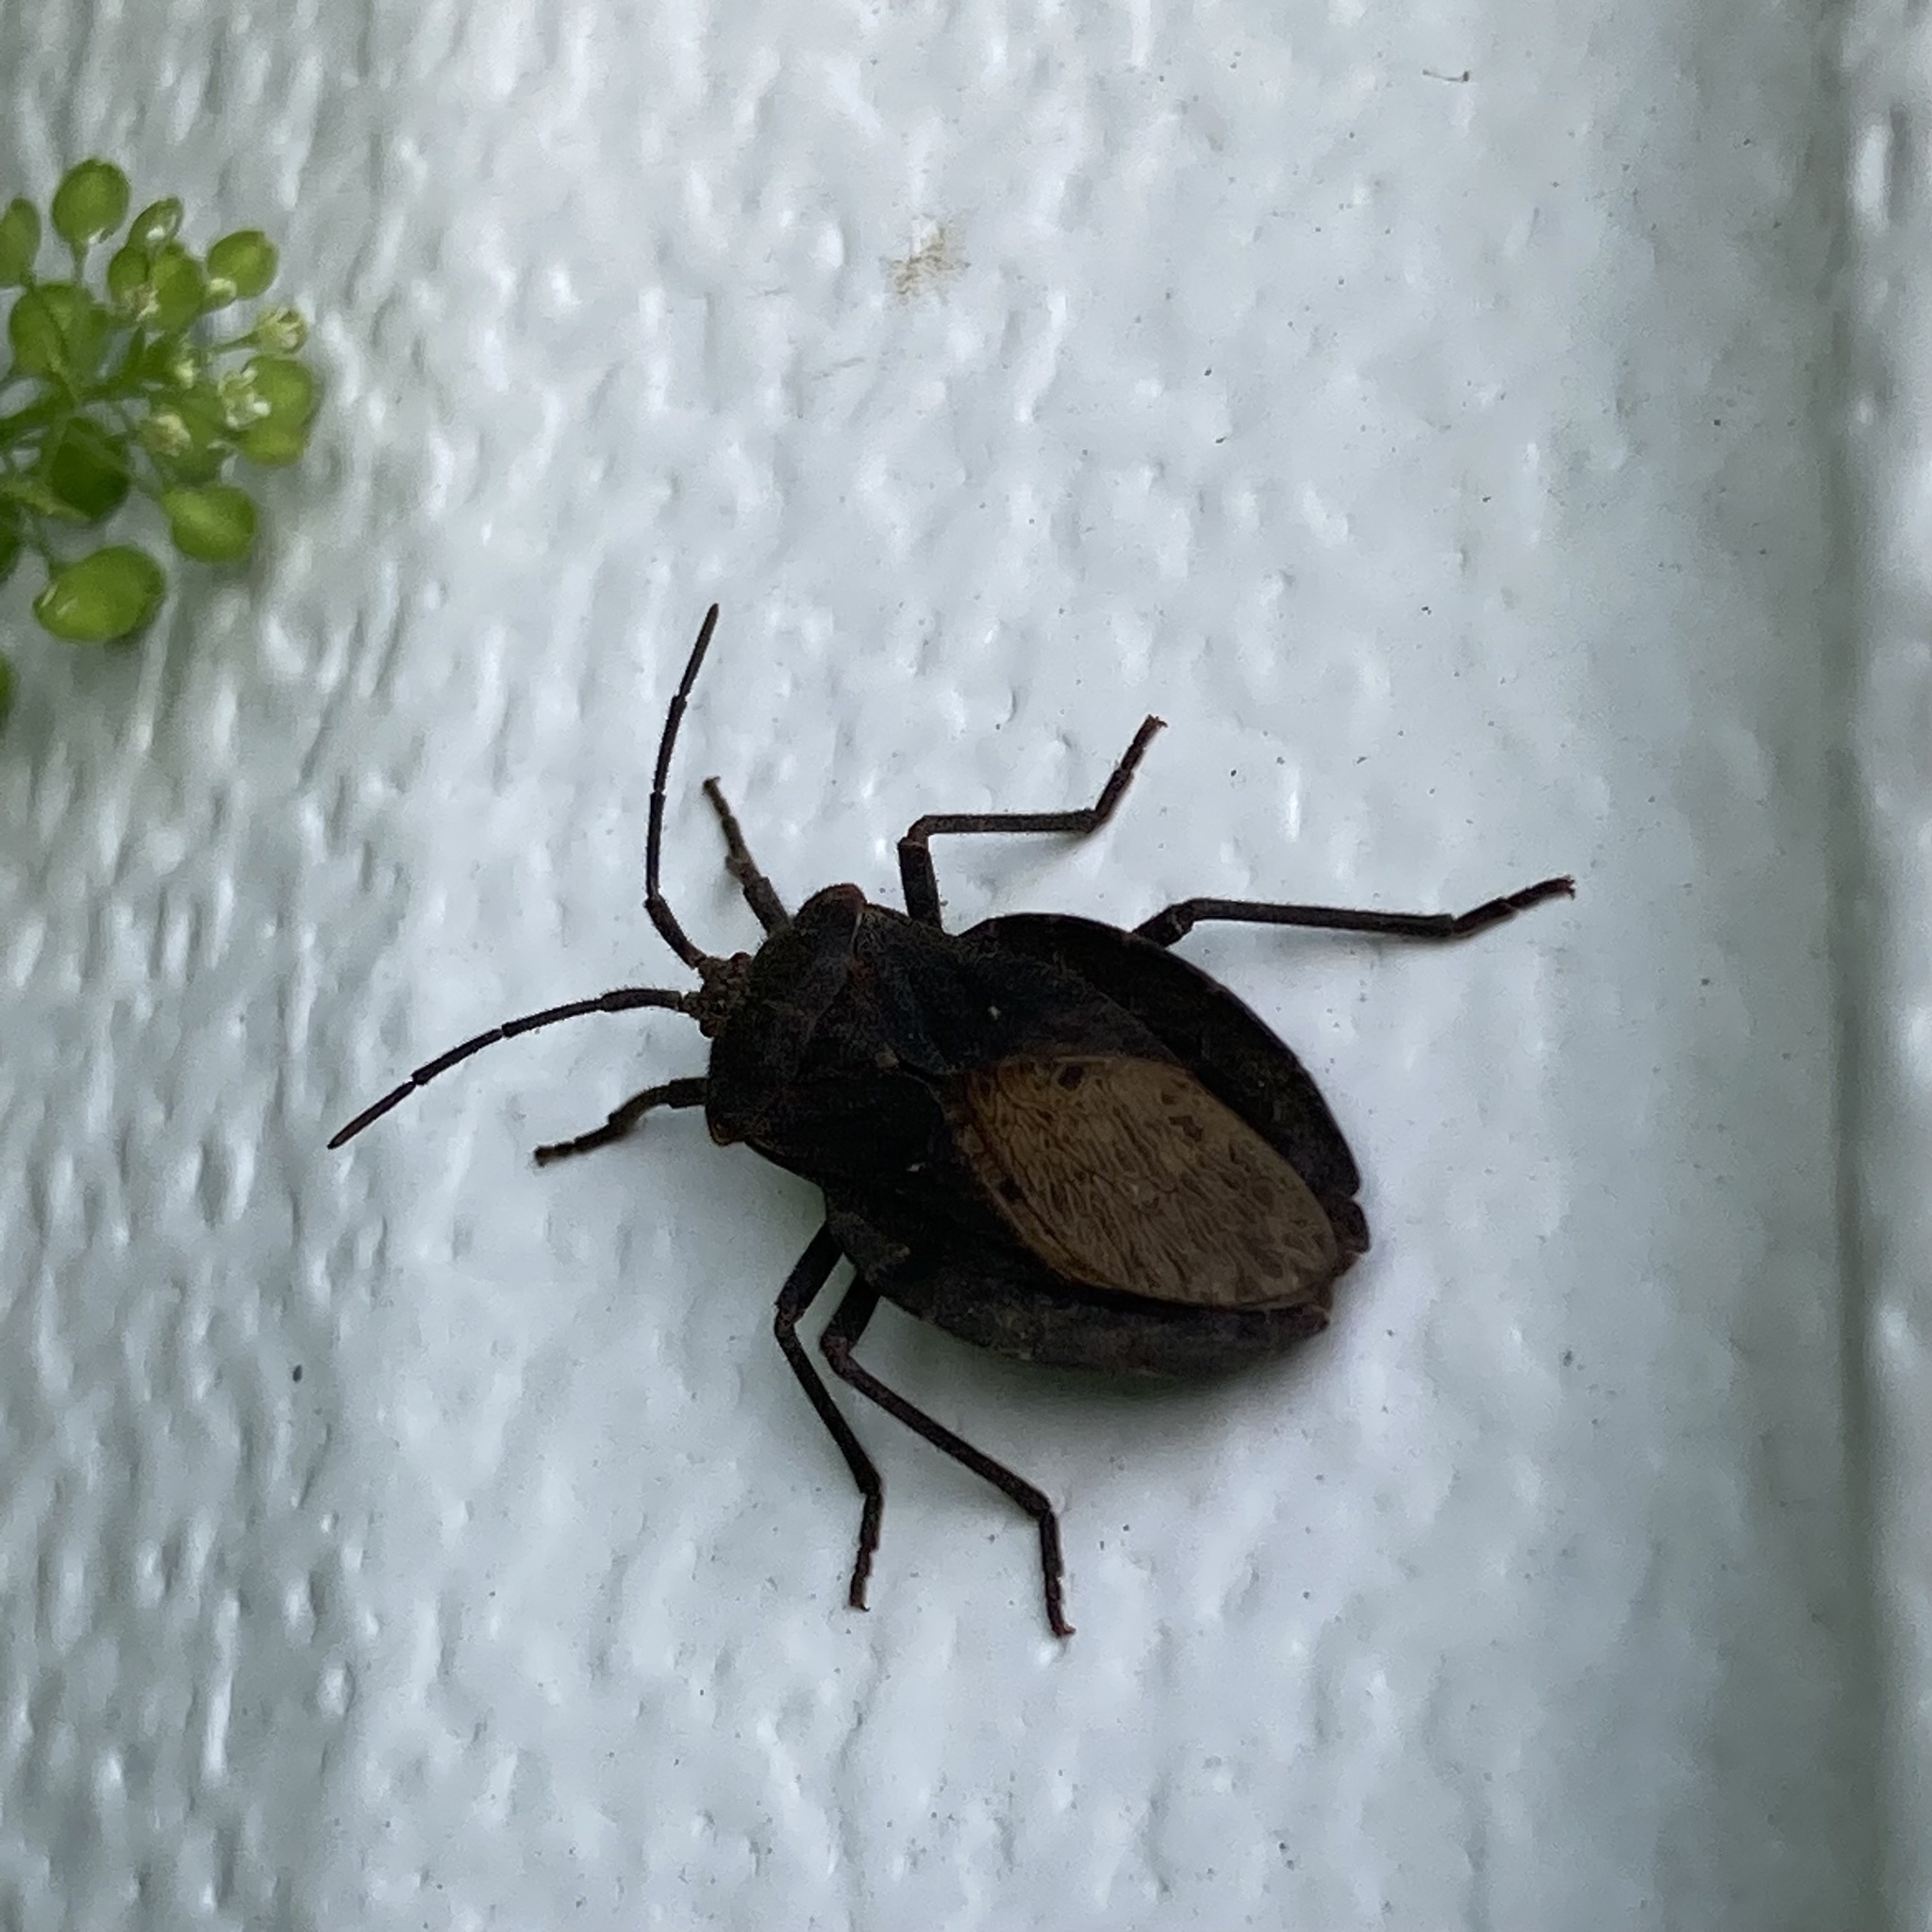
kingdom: Animalia
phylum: Arthropoda
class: Insecta
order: Hemiptera
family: Coreidae
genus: Spartocera
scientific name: Spartocera batatas
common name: Giant sweetpotato bug
